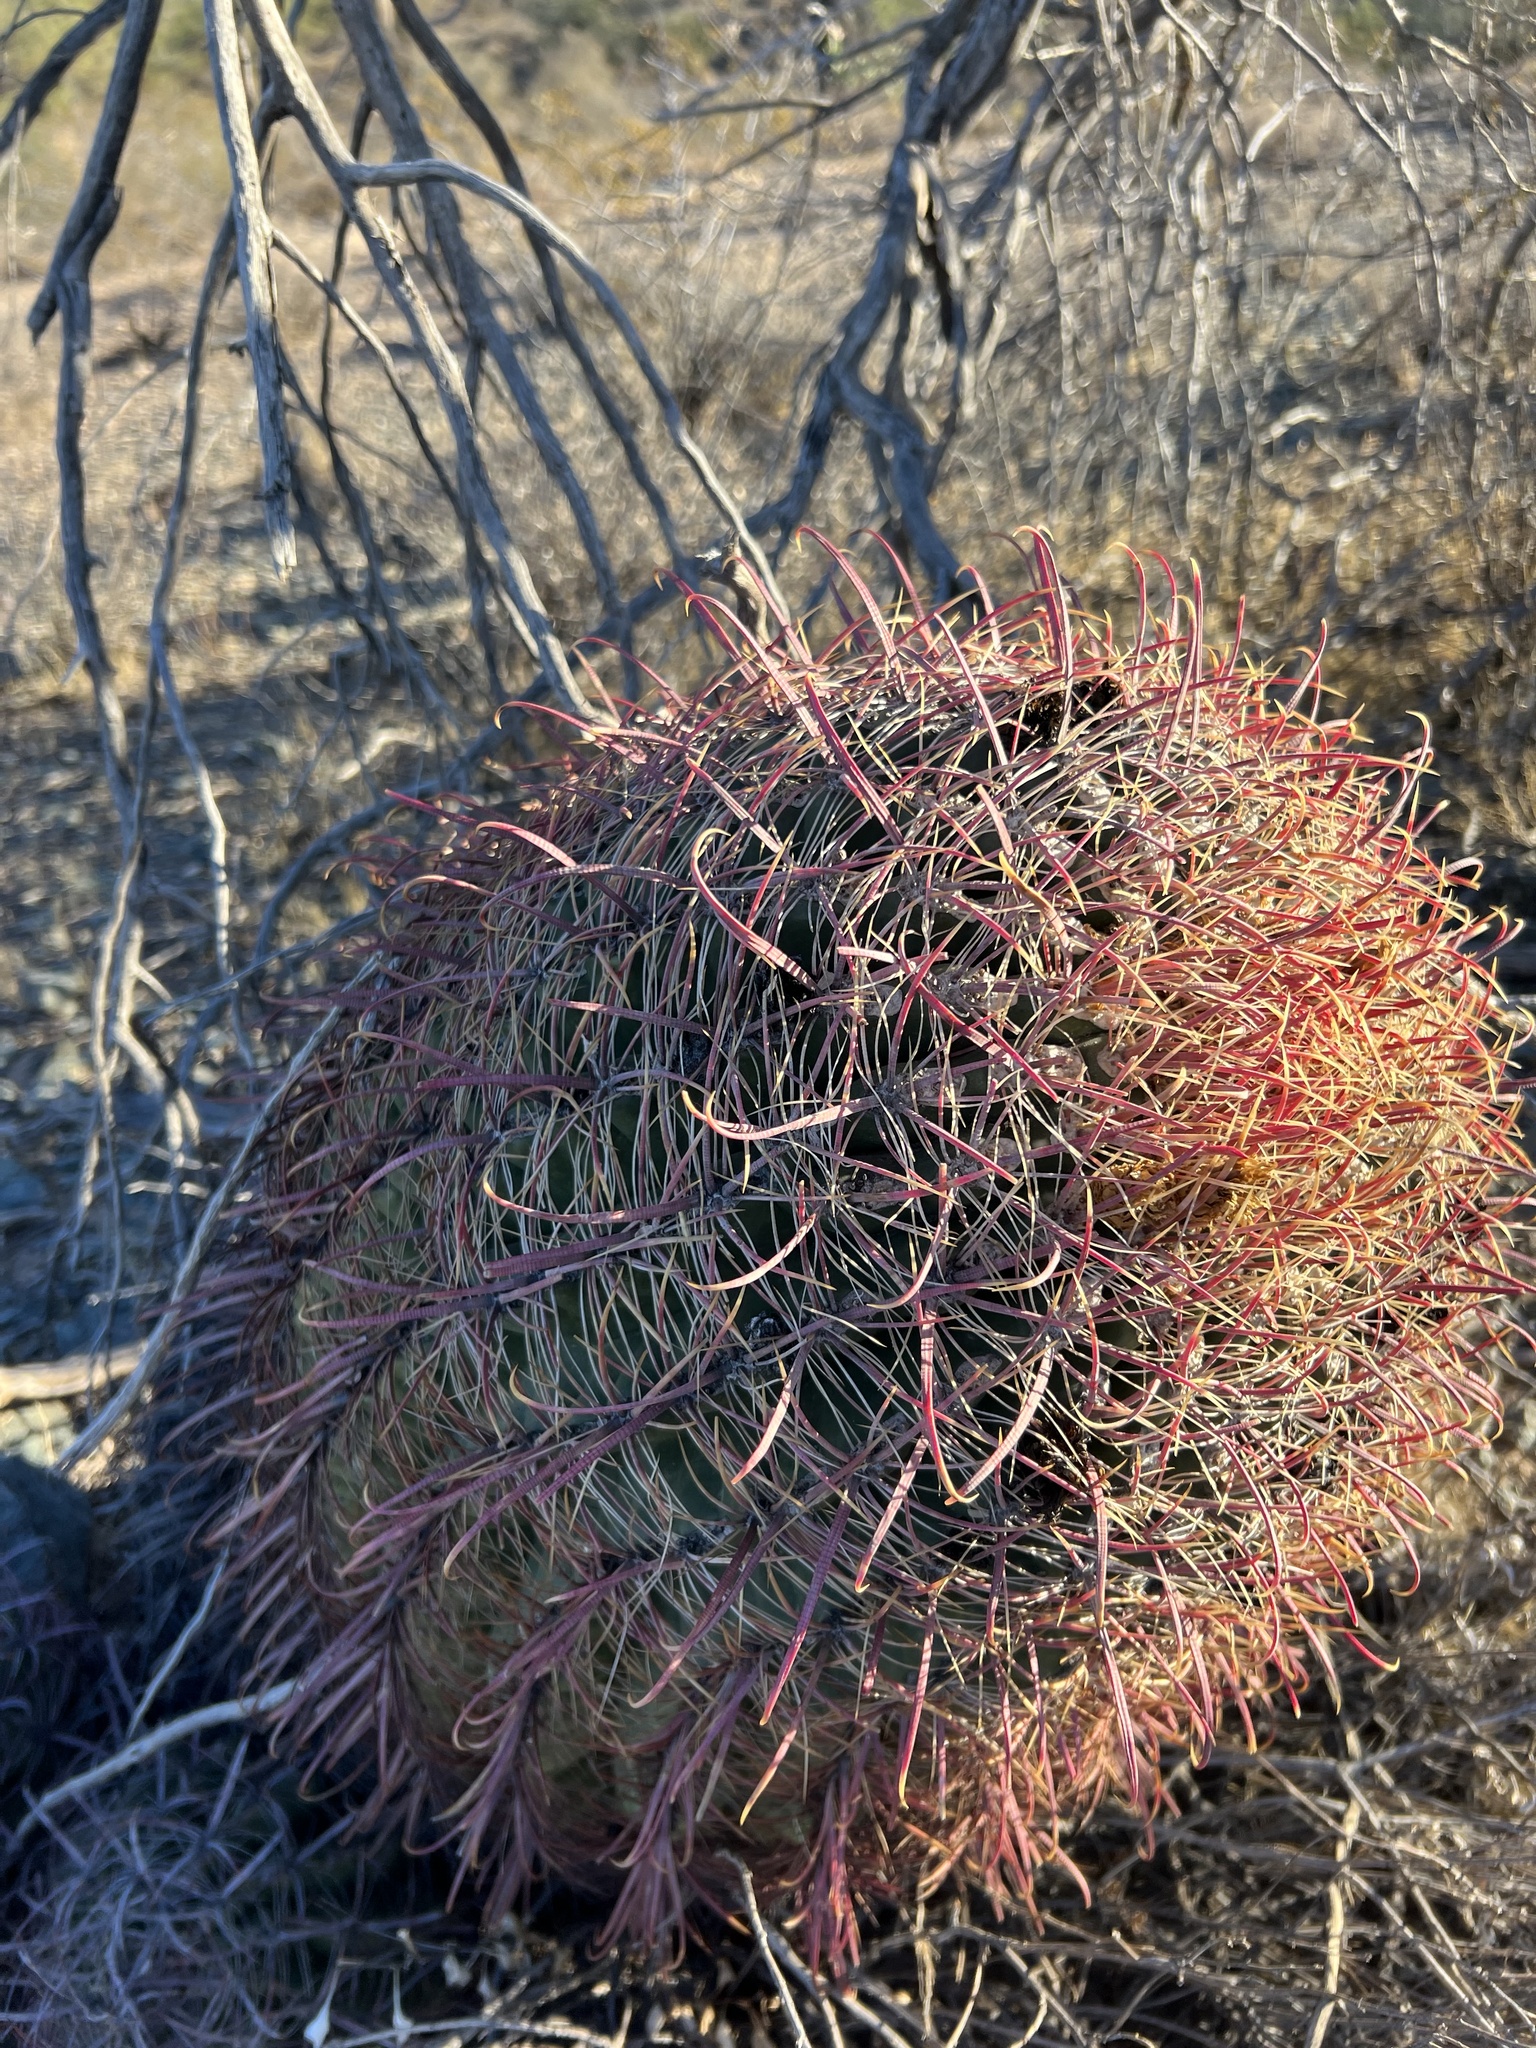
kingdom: Plantae
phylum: Tracheophyta
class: Magnoliopsida
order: Caryophyllales
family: Cactaceae
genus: Ferocactus
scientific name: Ferocactus cylindraceus
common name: California barrel cactus
